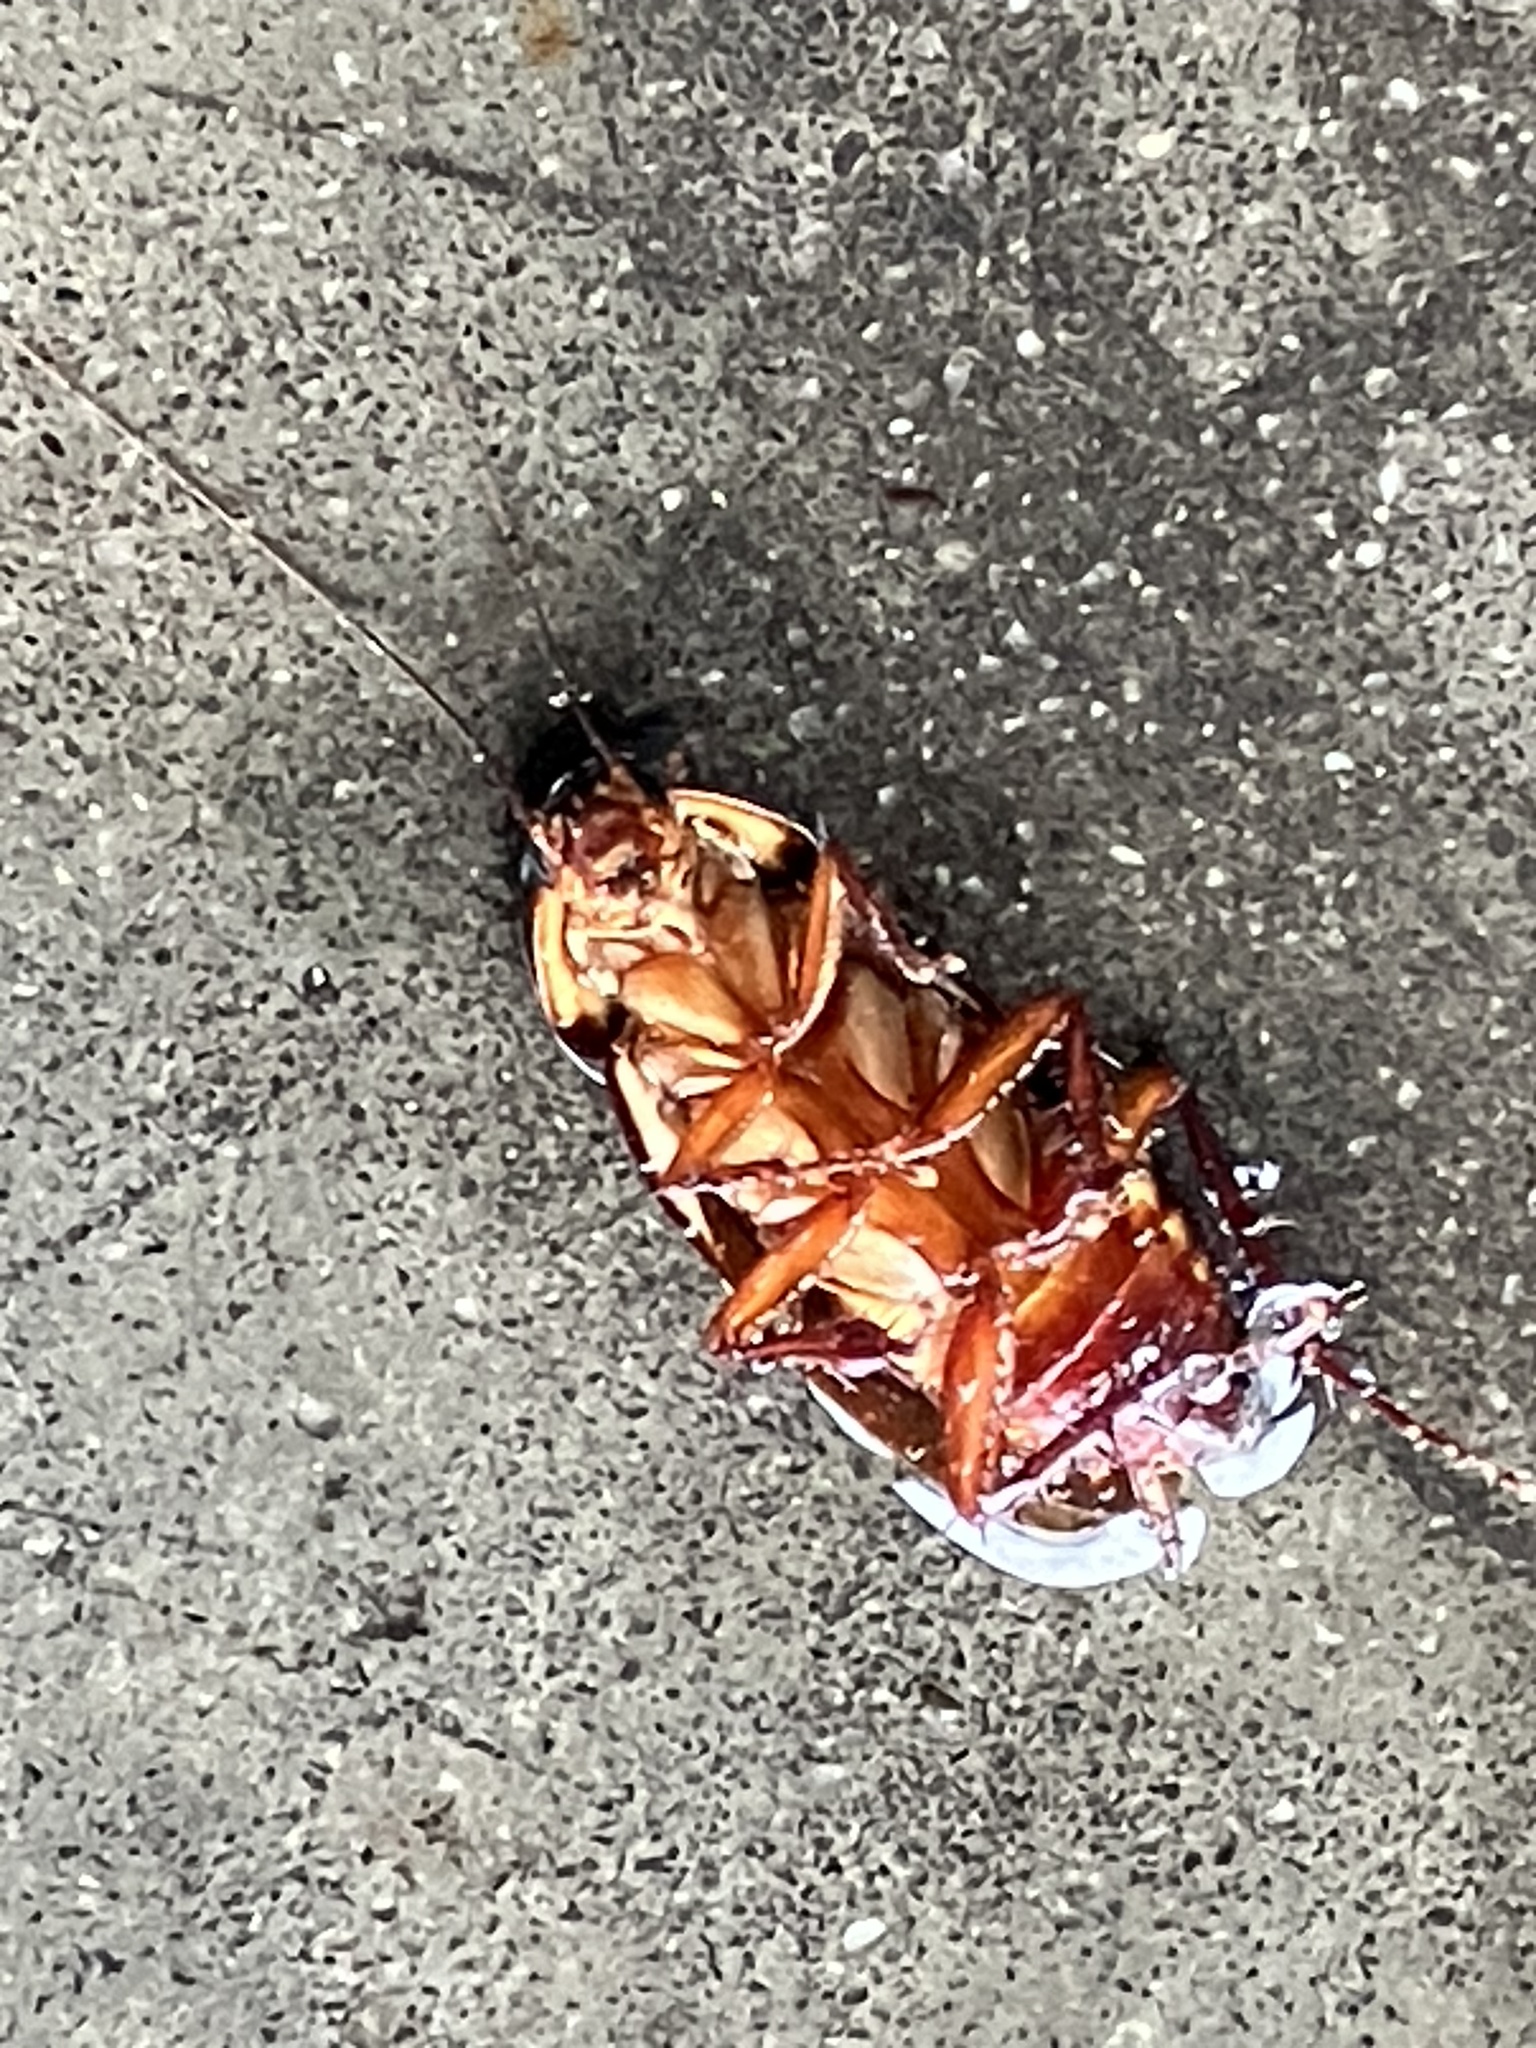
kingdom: Animalia
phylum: Arthropoda
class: Insecta
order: Blattodea
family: Blattidae
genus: Periplaneta
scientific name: Periplaneta australasiae
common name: Australian cockroach
